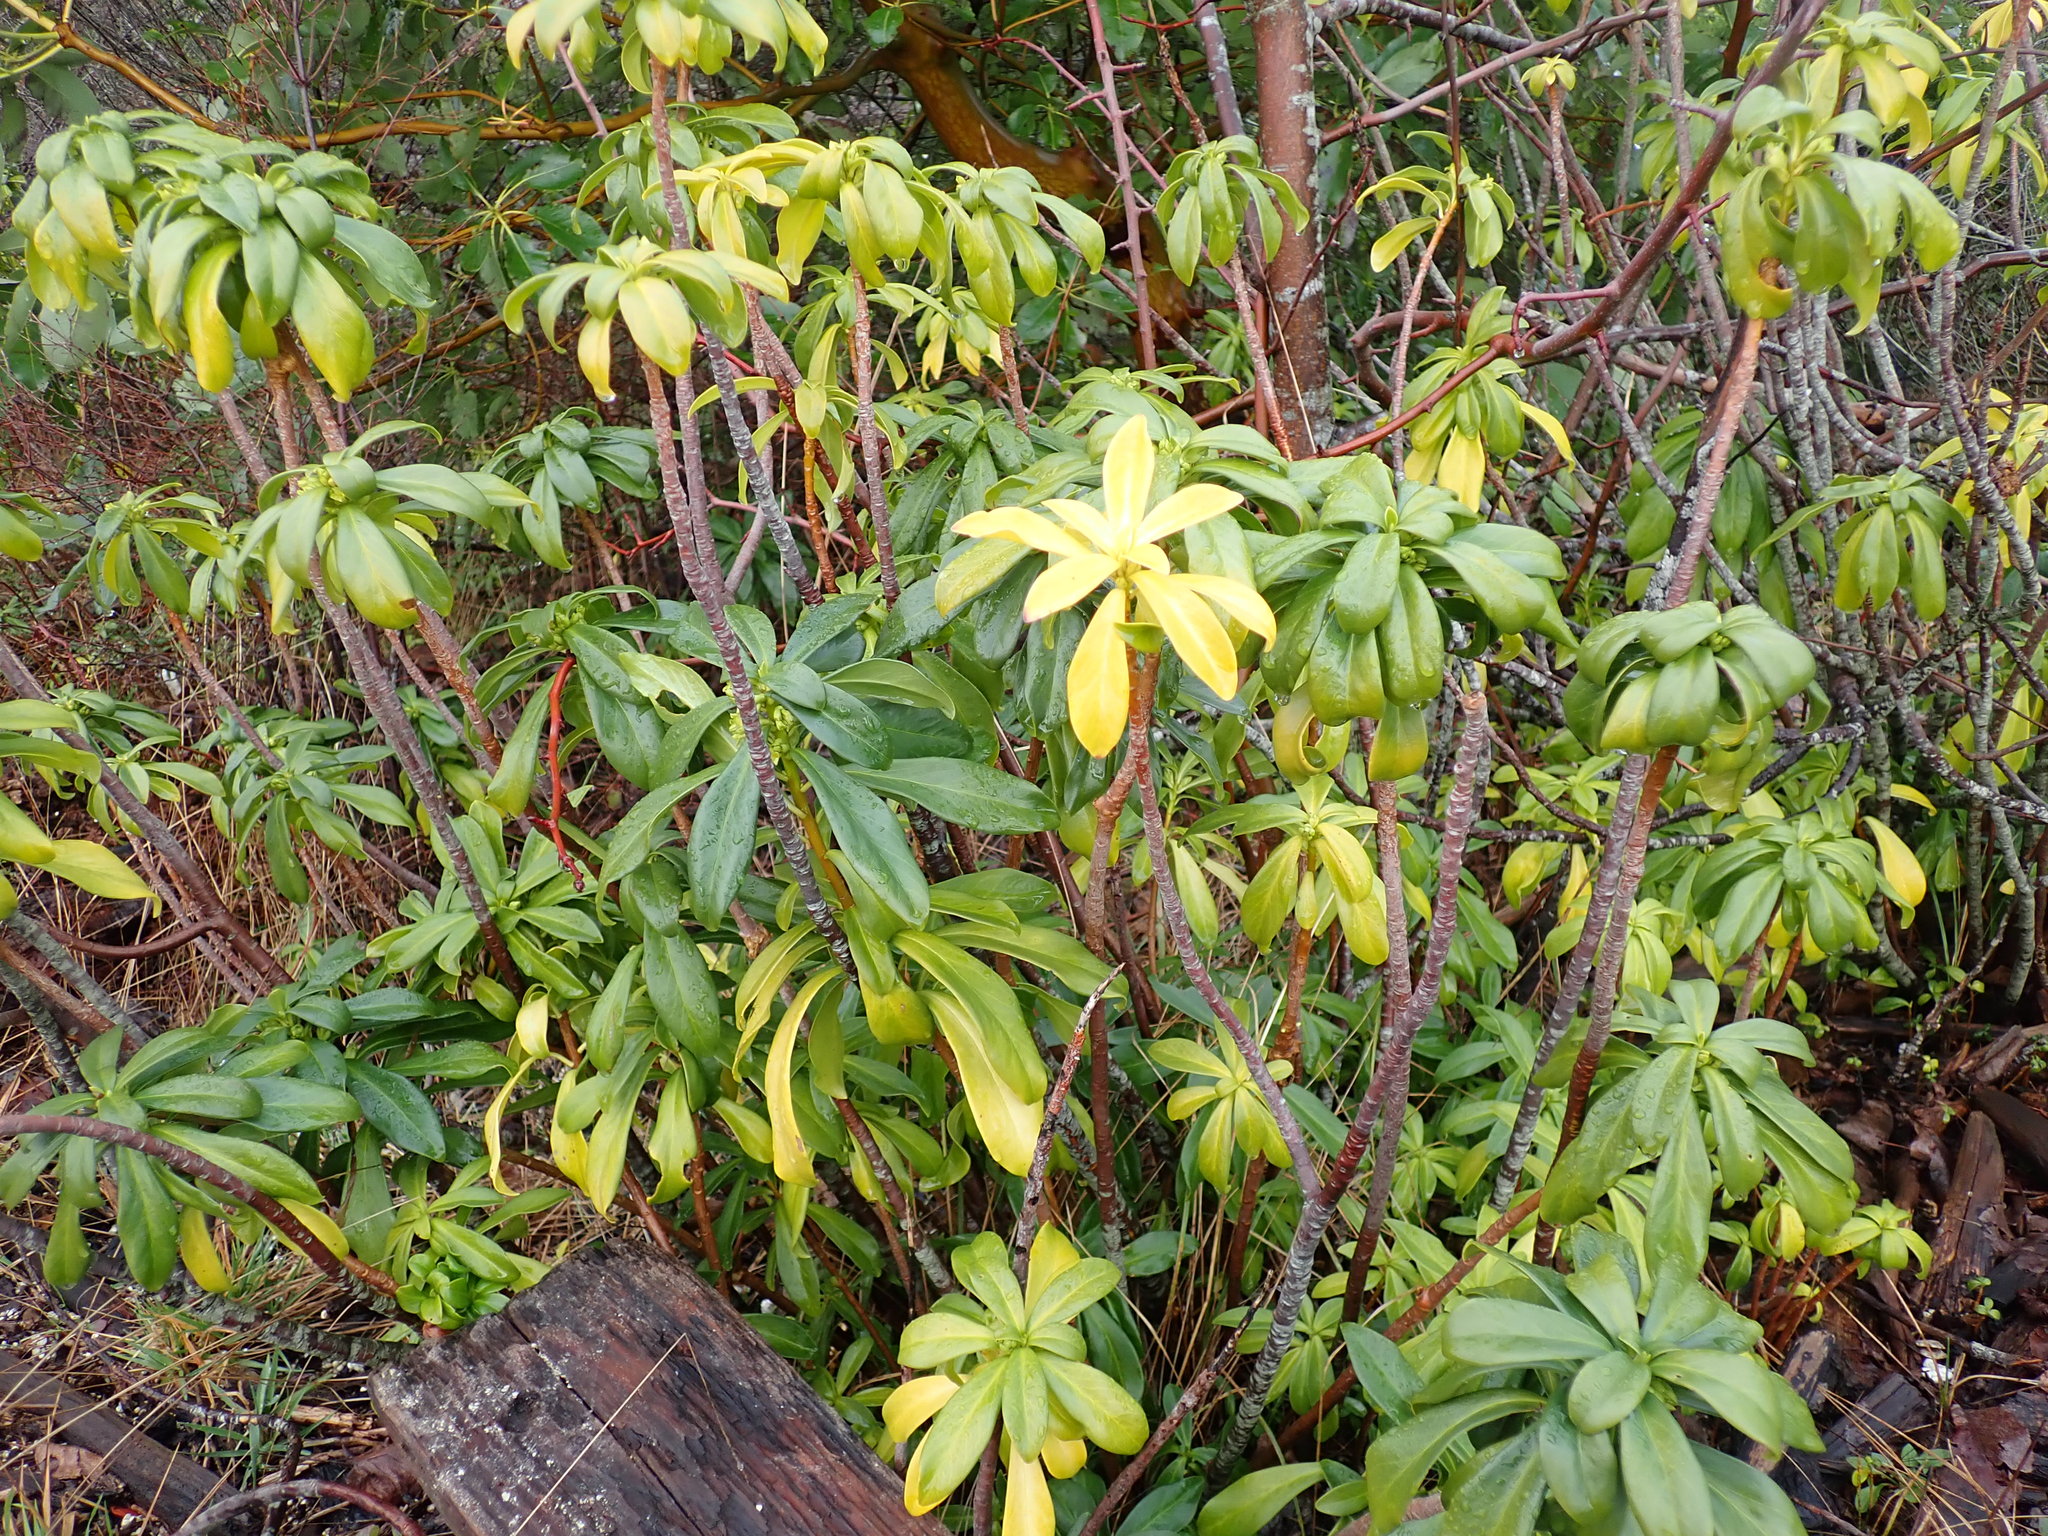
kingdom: Plantae
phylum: Tracheophyta
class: Magnoliopsida
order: Malvales
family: Thymelaeaceae
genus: Daphne
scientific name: Daphne laureola
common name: Spurge-laurel
